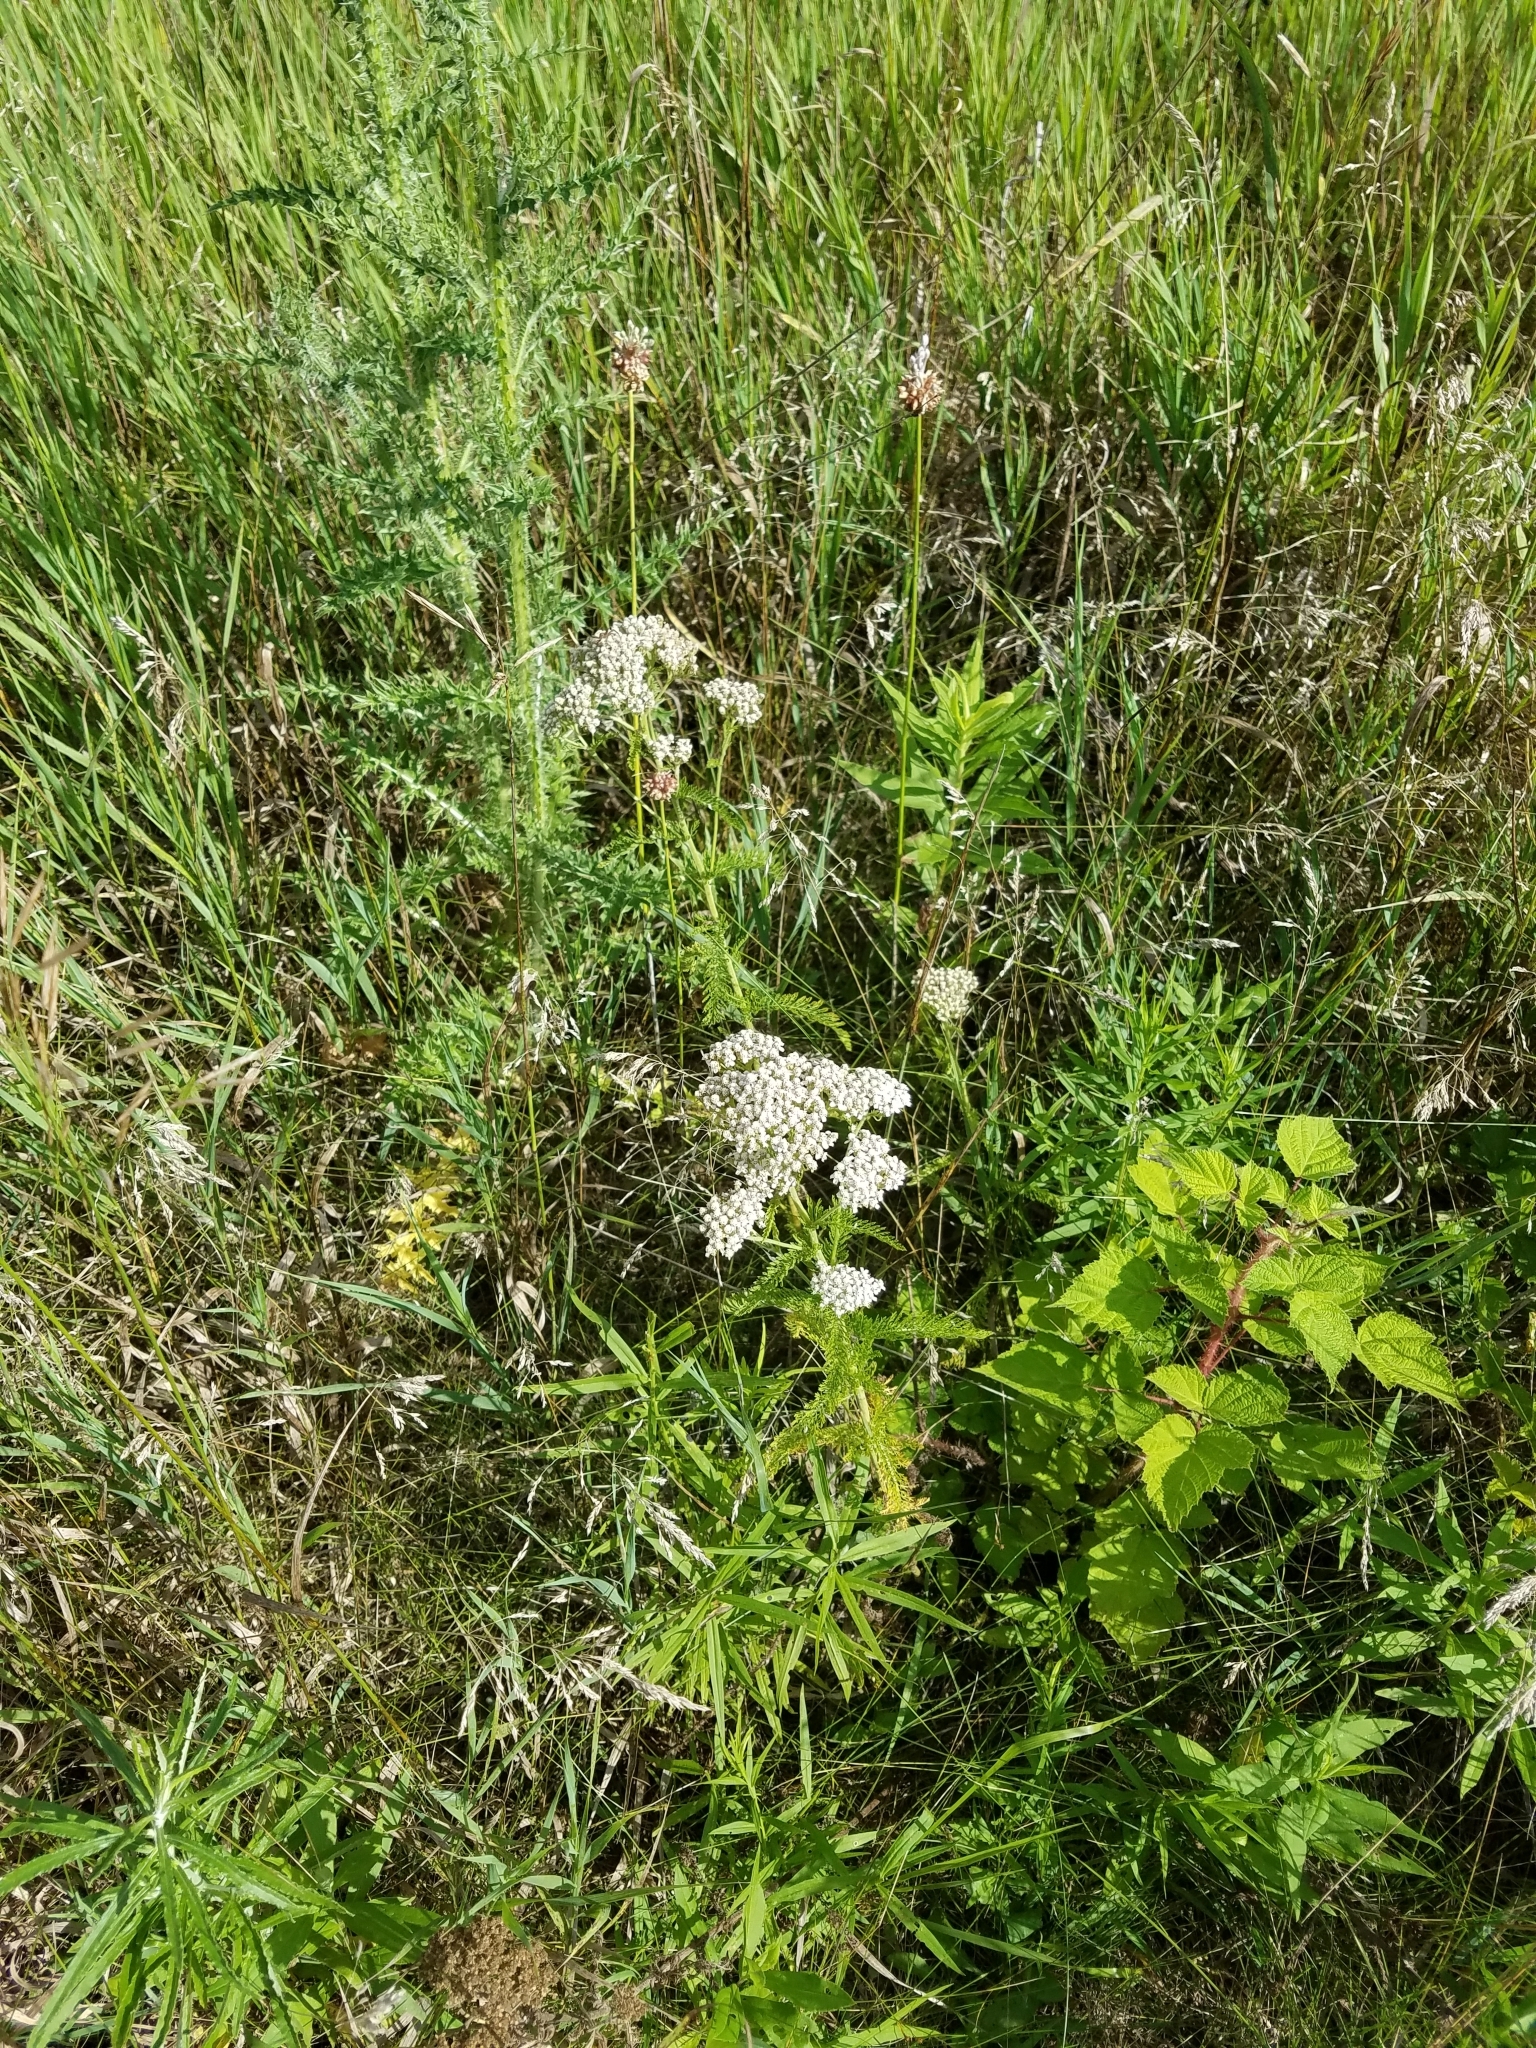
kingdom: Plantae
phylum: Tracheophyta
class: Magnoliopsida
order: Asterales
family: Asteraceae
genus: Achillea
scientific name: Achillea millefolium
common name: Yarrow
